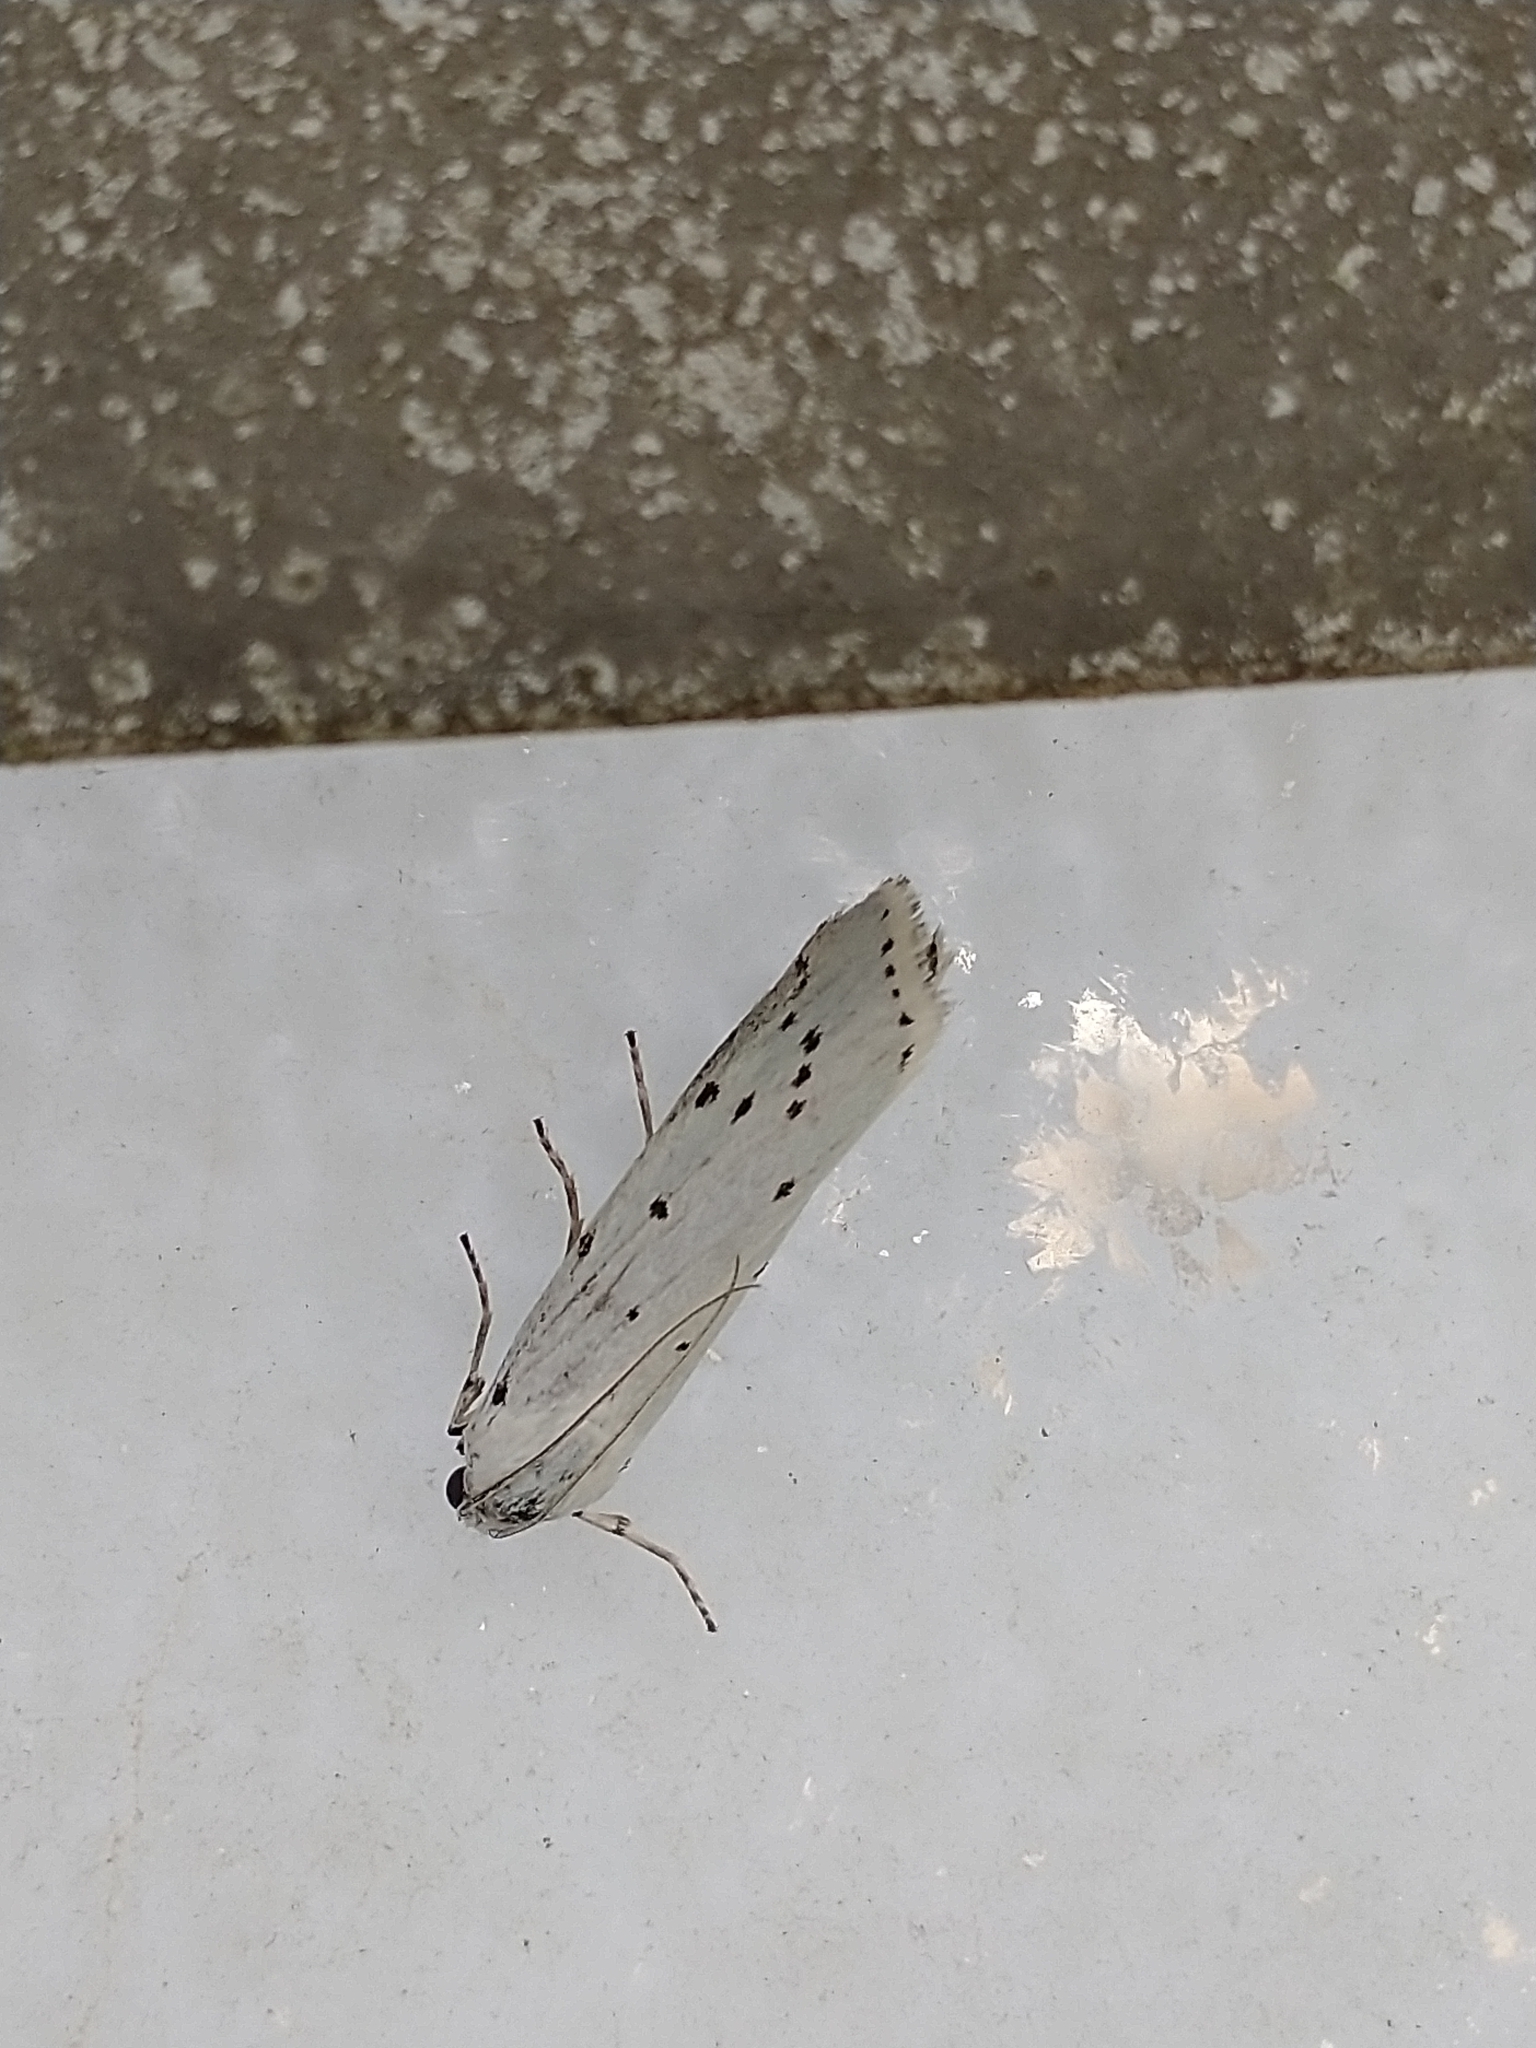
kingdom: Animalia
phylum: Arthropoda
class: Insecta
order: Lepidoptera
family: Pyralidae
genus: Myelois
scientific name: Myelois circumvoluta
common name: Thistle ermine
